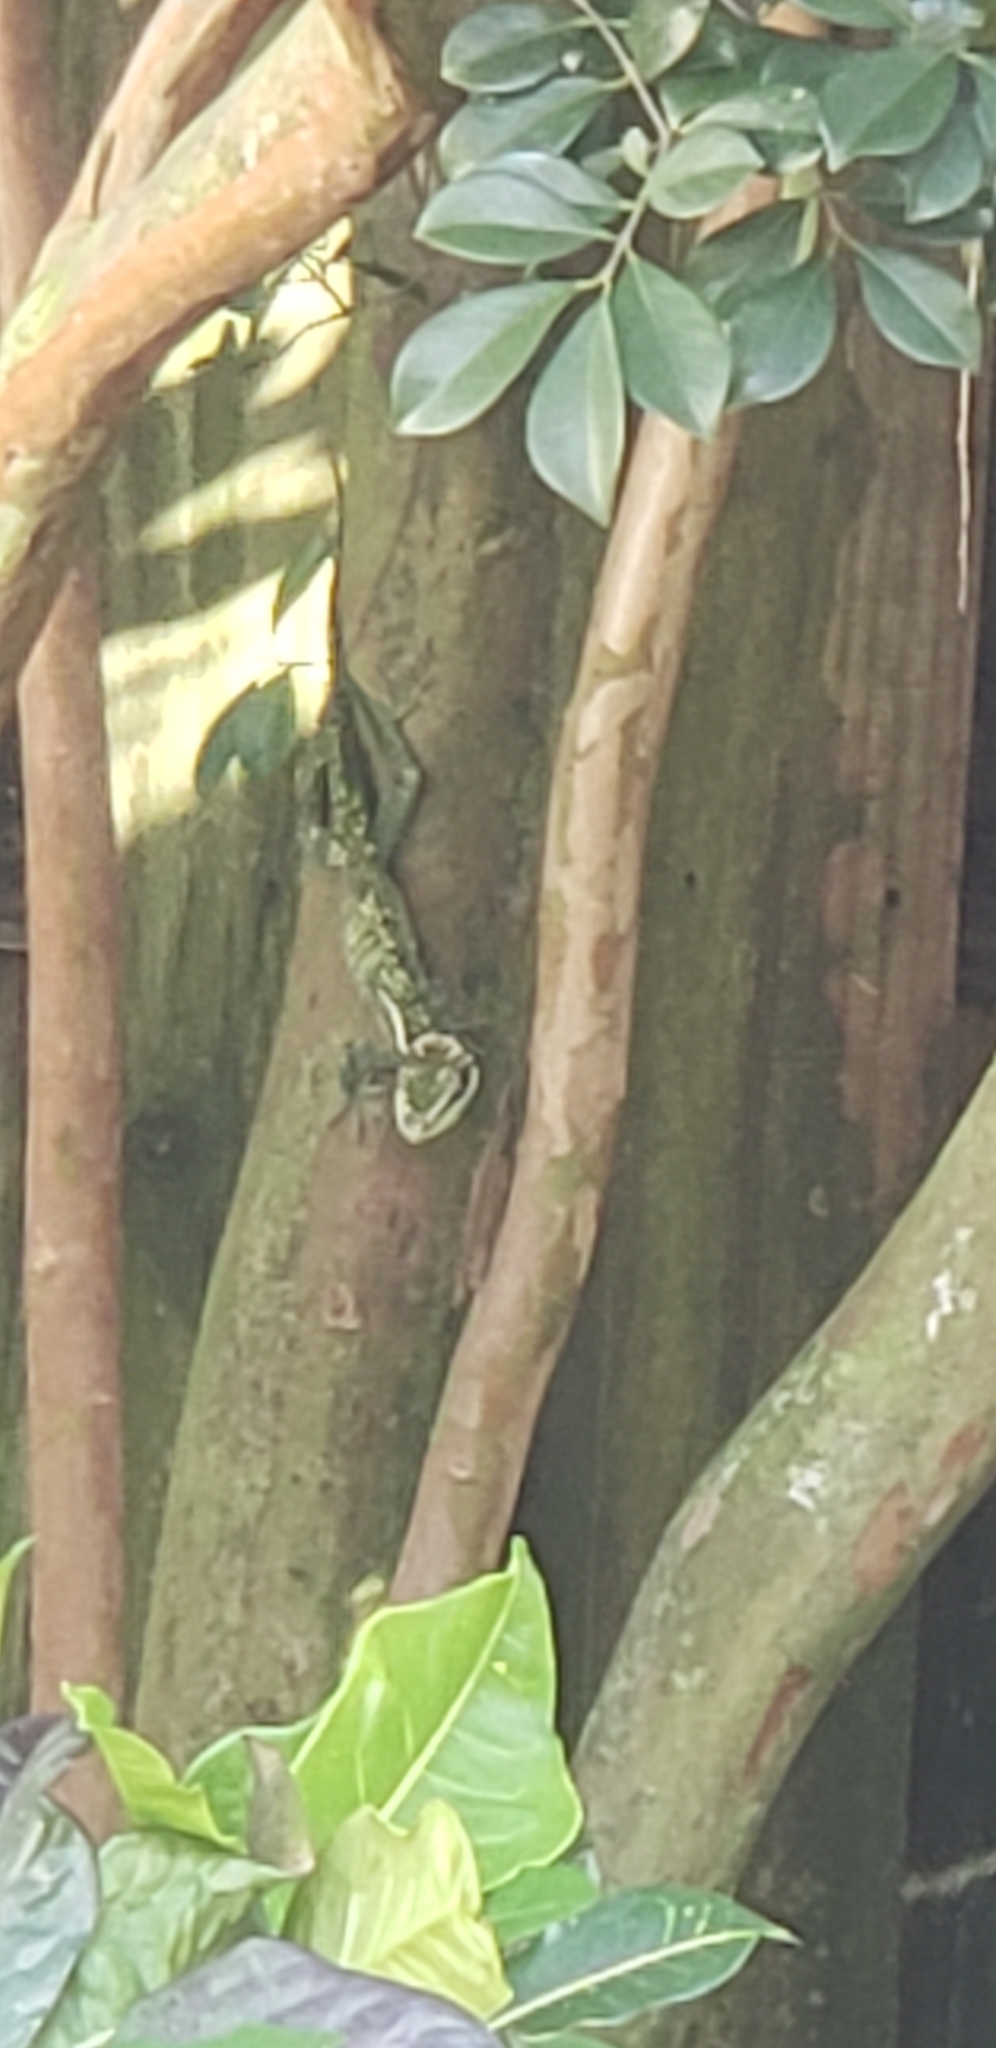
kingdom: Animalia
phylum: Chordata
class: Squamata
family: Dactyloidae
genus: Anolis
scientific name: Anolis equestris
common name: Knight anole
